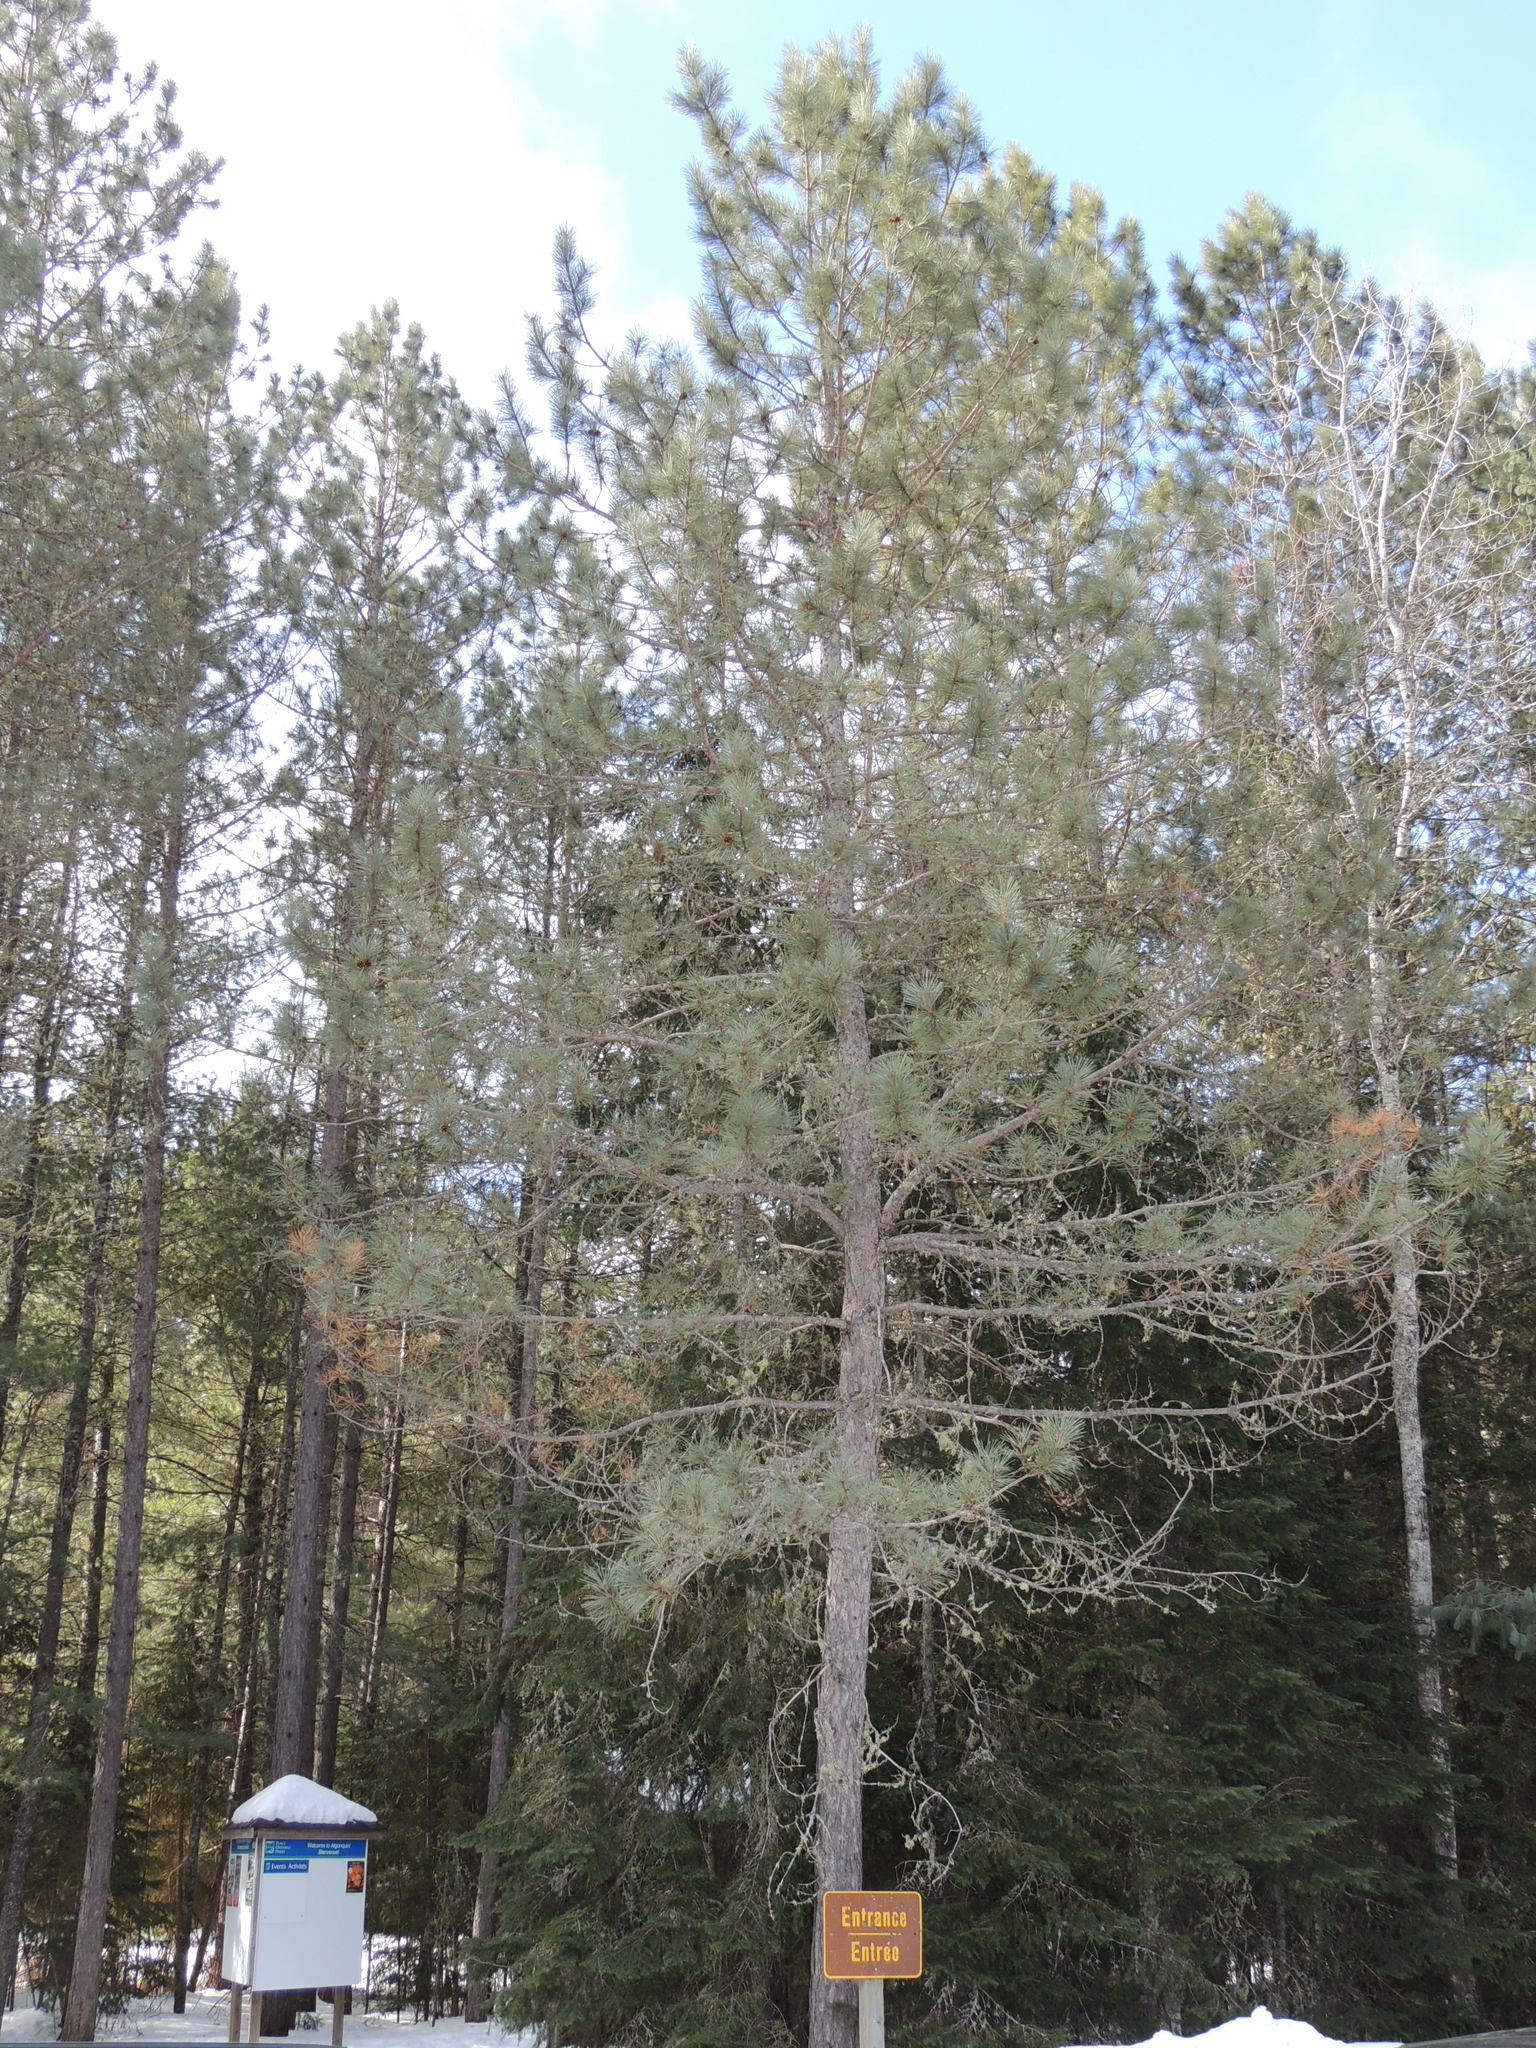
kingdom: Plantae
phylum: Tracheophyta
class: Pinopsida
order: Pinales
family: Pinaceae
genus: Pinus
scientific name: Pinus resinosa
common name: Norway pine
